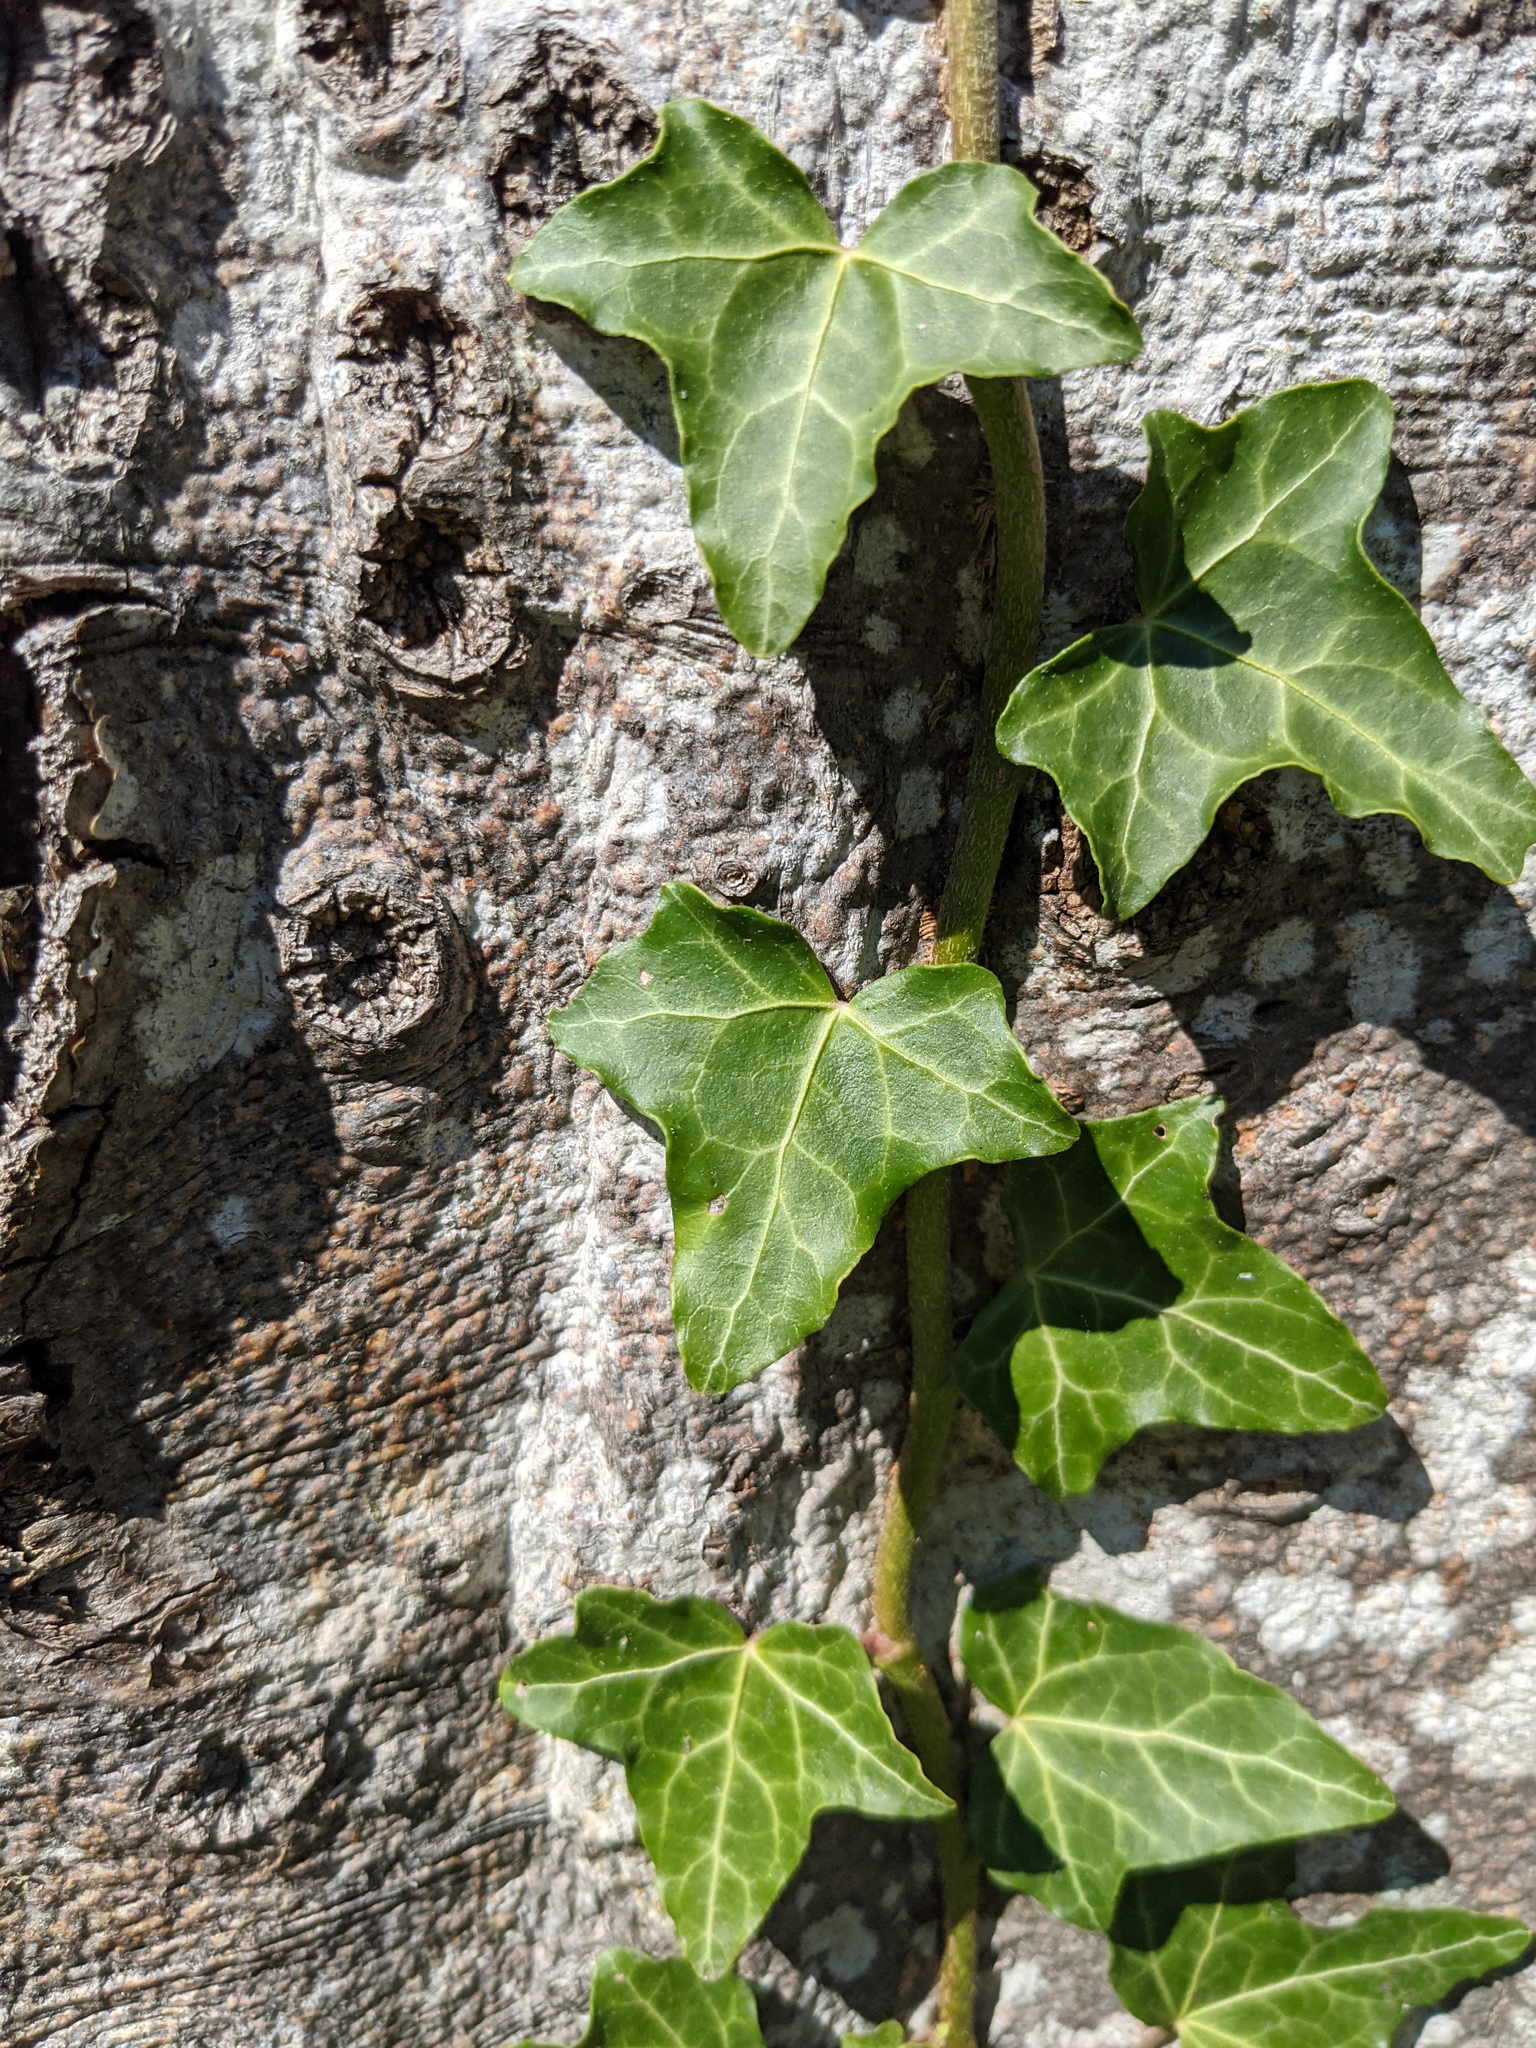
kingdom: Plantae
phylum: Tracheophyta
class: Magnoliopsida
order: Apiales
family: Araliaceae
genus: Hedera
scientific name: Hedera helix
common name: Ivy
